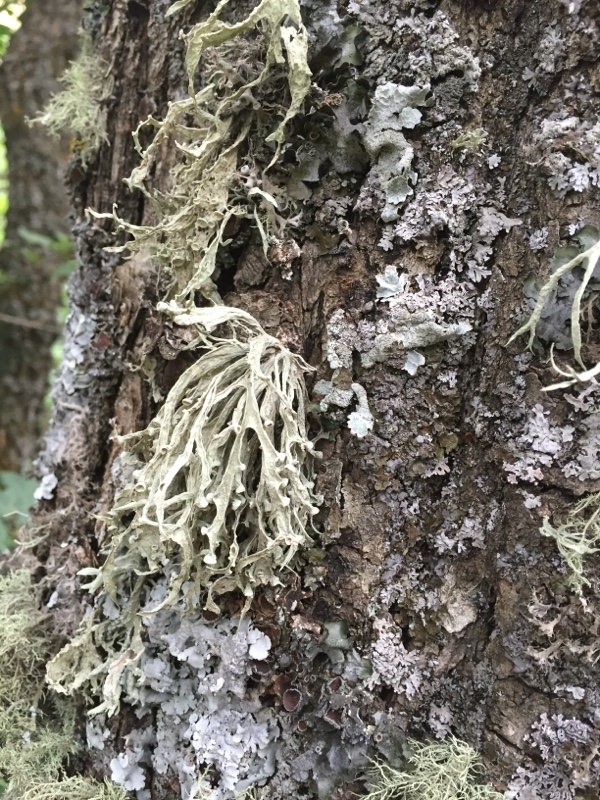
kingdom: Fungi
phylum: Ascomycota
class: Lecanoromycetes
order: Lecanorales
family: Ramalinaceae
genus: Ramalina
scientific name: Ramalina inflata
